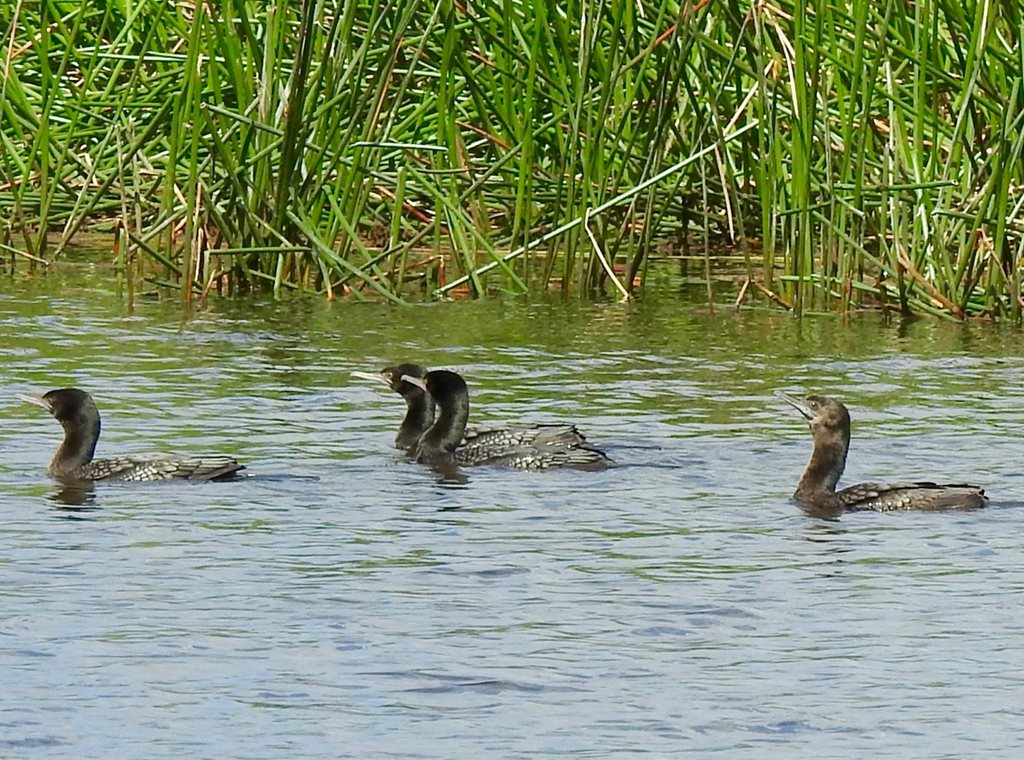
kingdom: Animalia
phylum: Chordata
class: Aves
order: Suliformes
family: Phalacrocoracidae
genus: Phalacrocorax
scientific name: Phalacrocorax sulcirostris
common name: Little black cormorant
